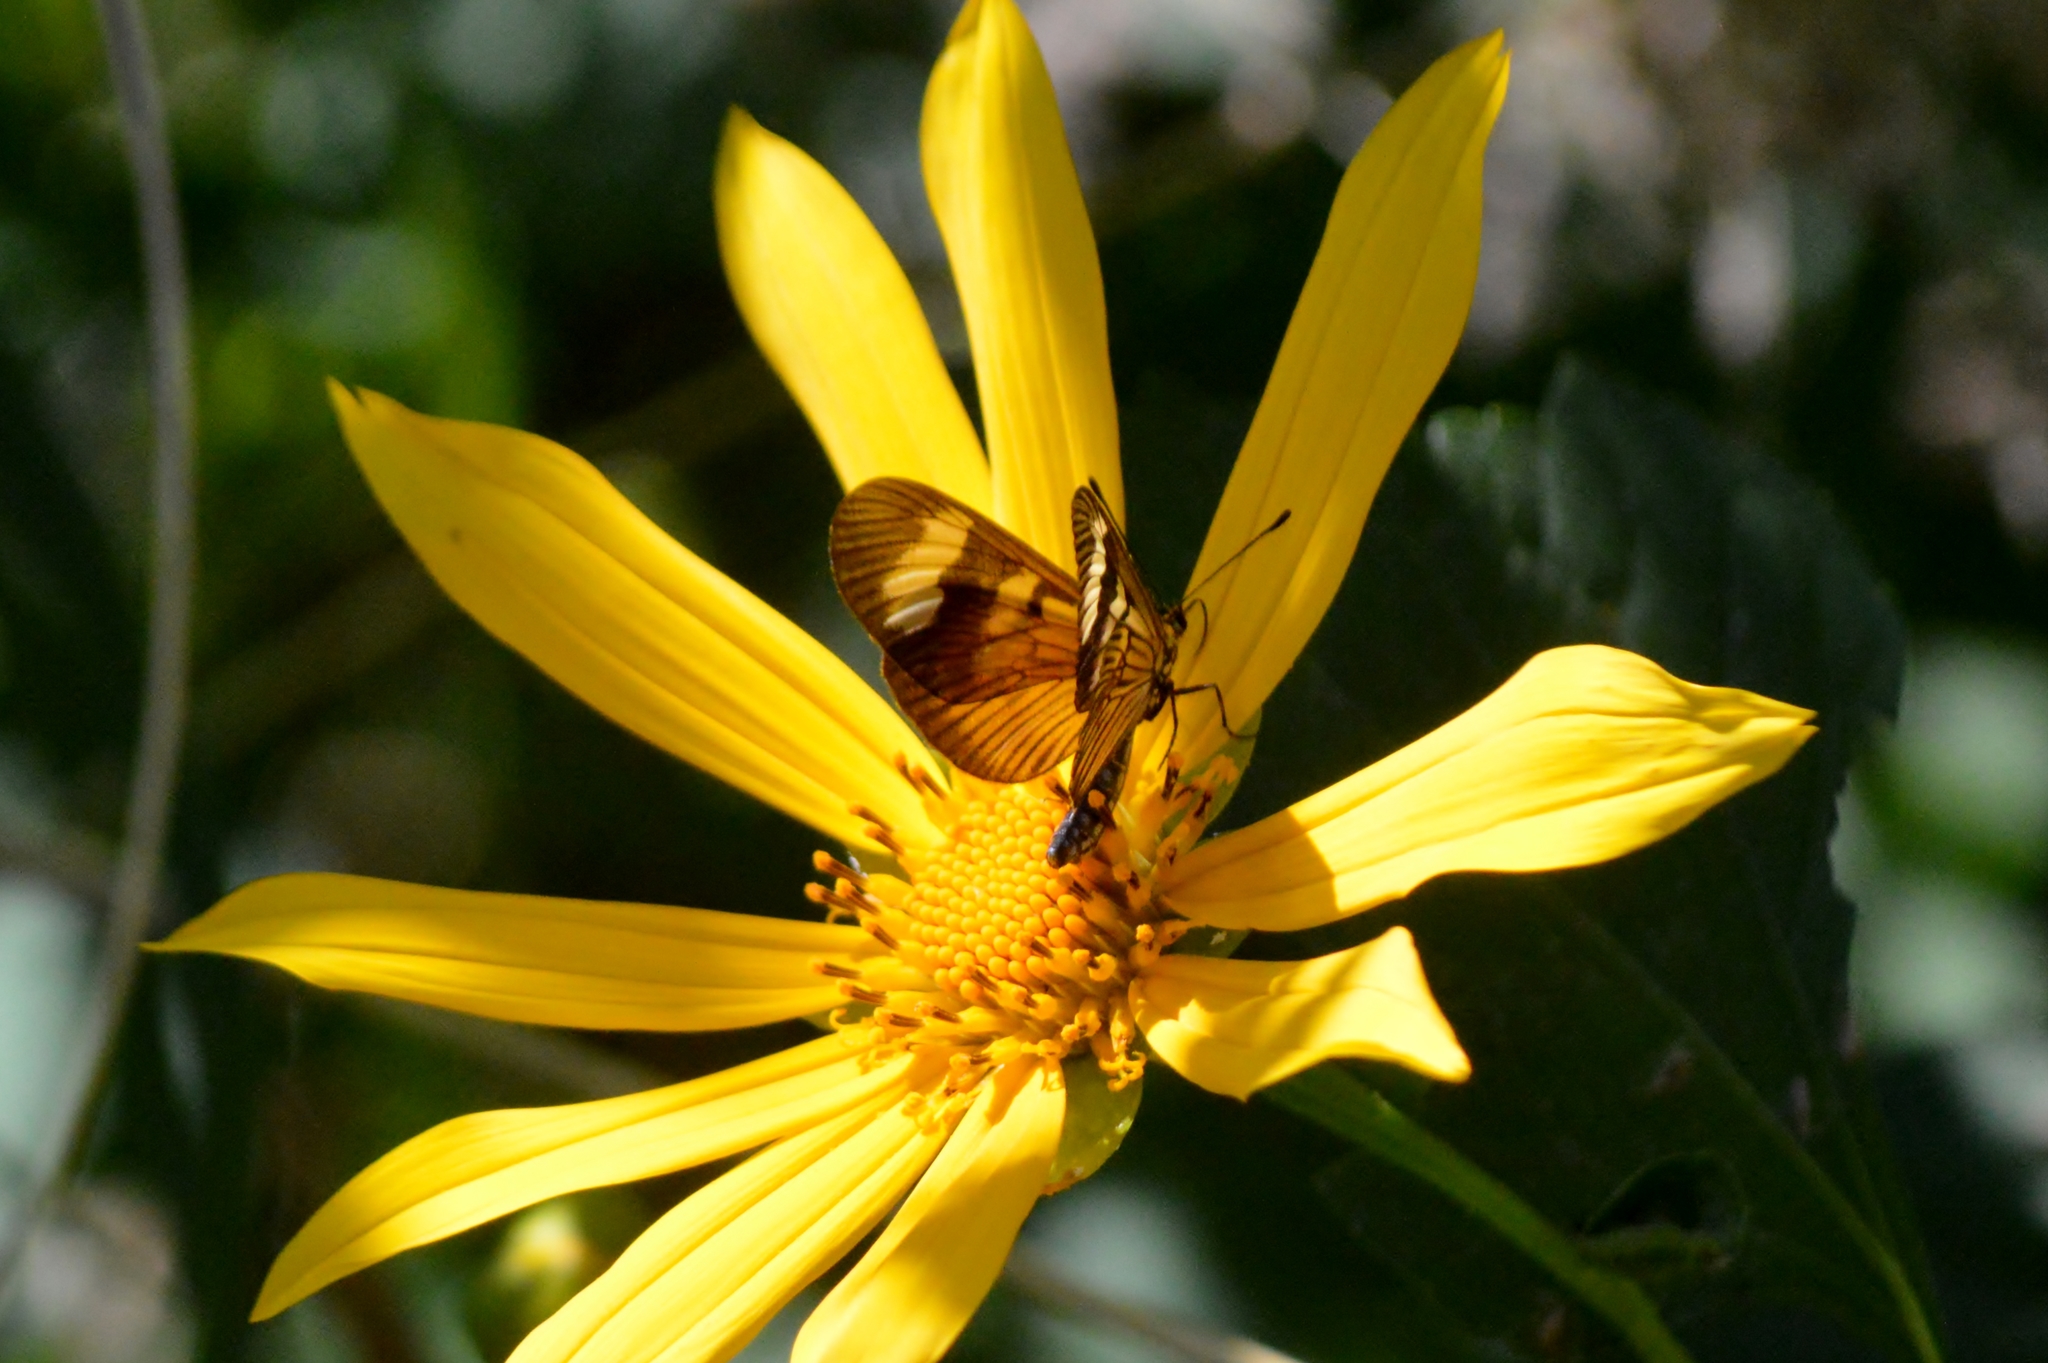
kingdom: Animalia
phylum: Arthropoda
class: Insecta
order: Lepidoptera
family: Nymphalidae
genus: Actinote
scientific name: Actinote pellenea
